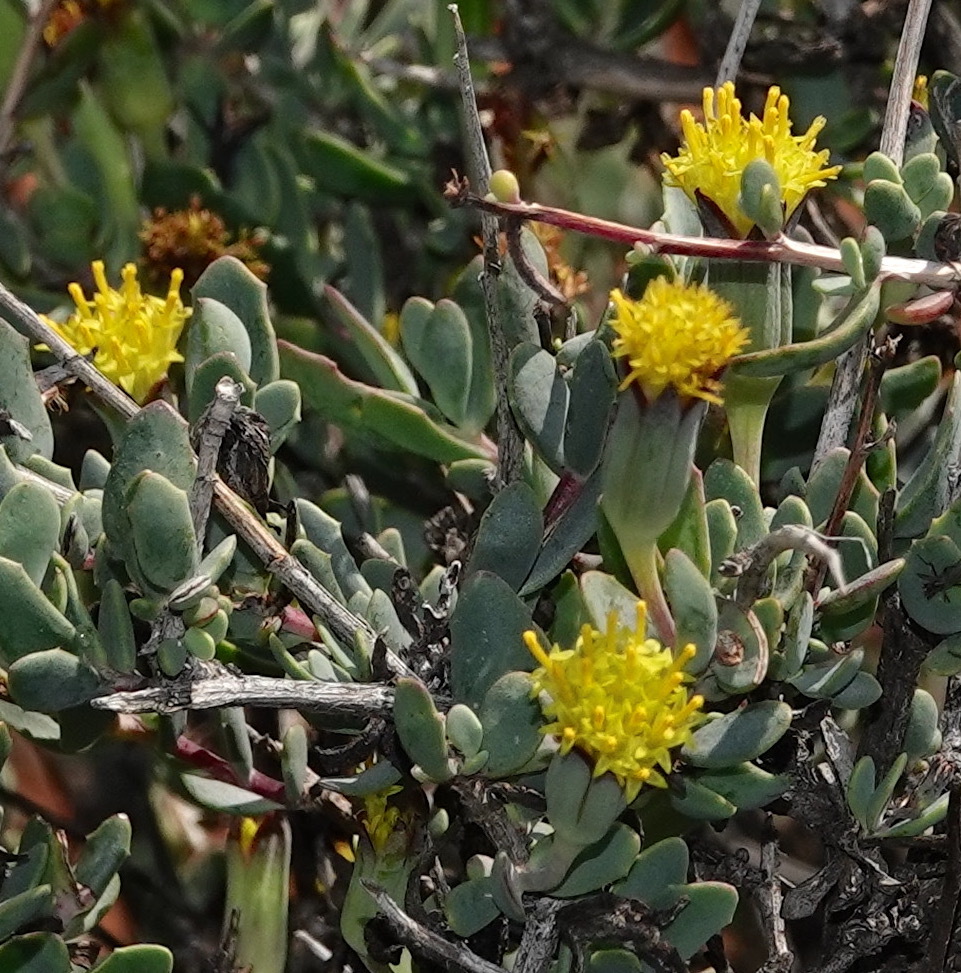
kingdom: Plantae
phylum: Tracheophyta
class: Magnoliopsida
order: Asterales
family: Asteraceae
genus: Othonna
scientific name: Othonna spinescens
